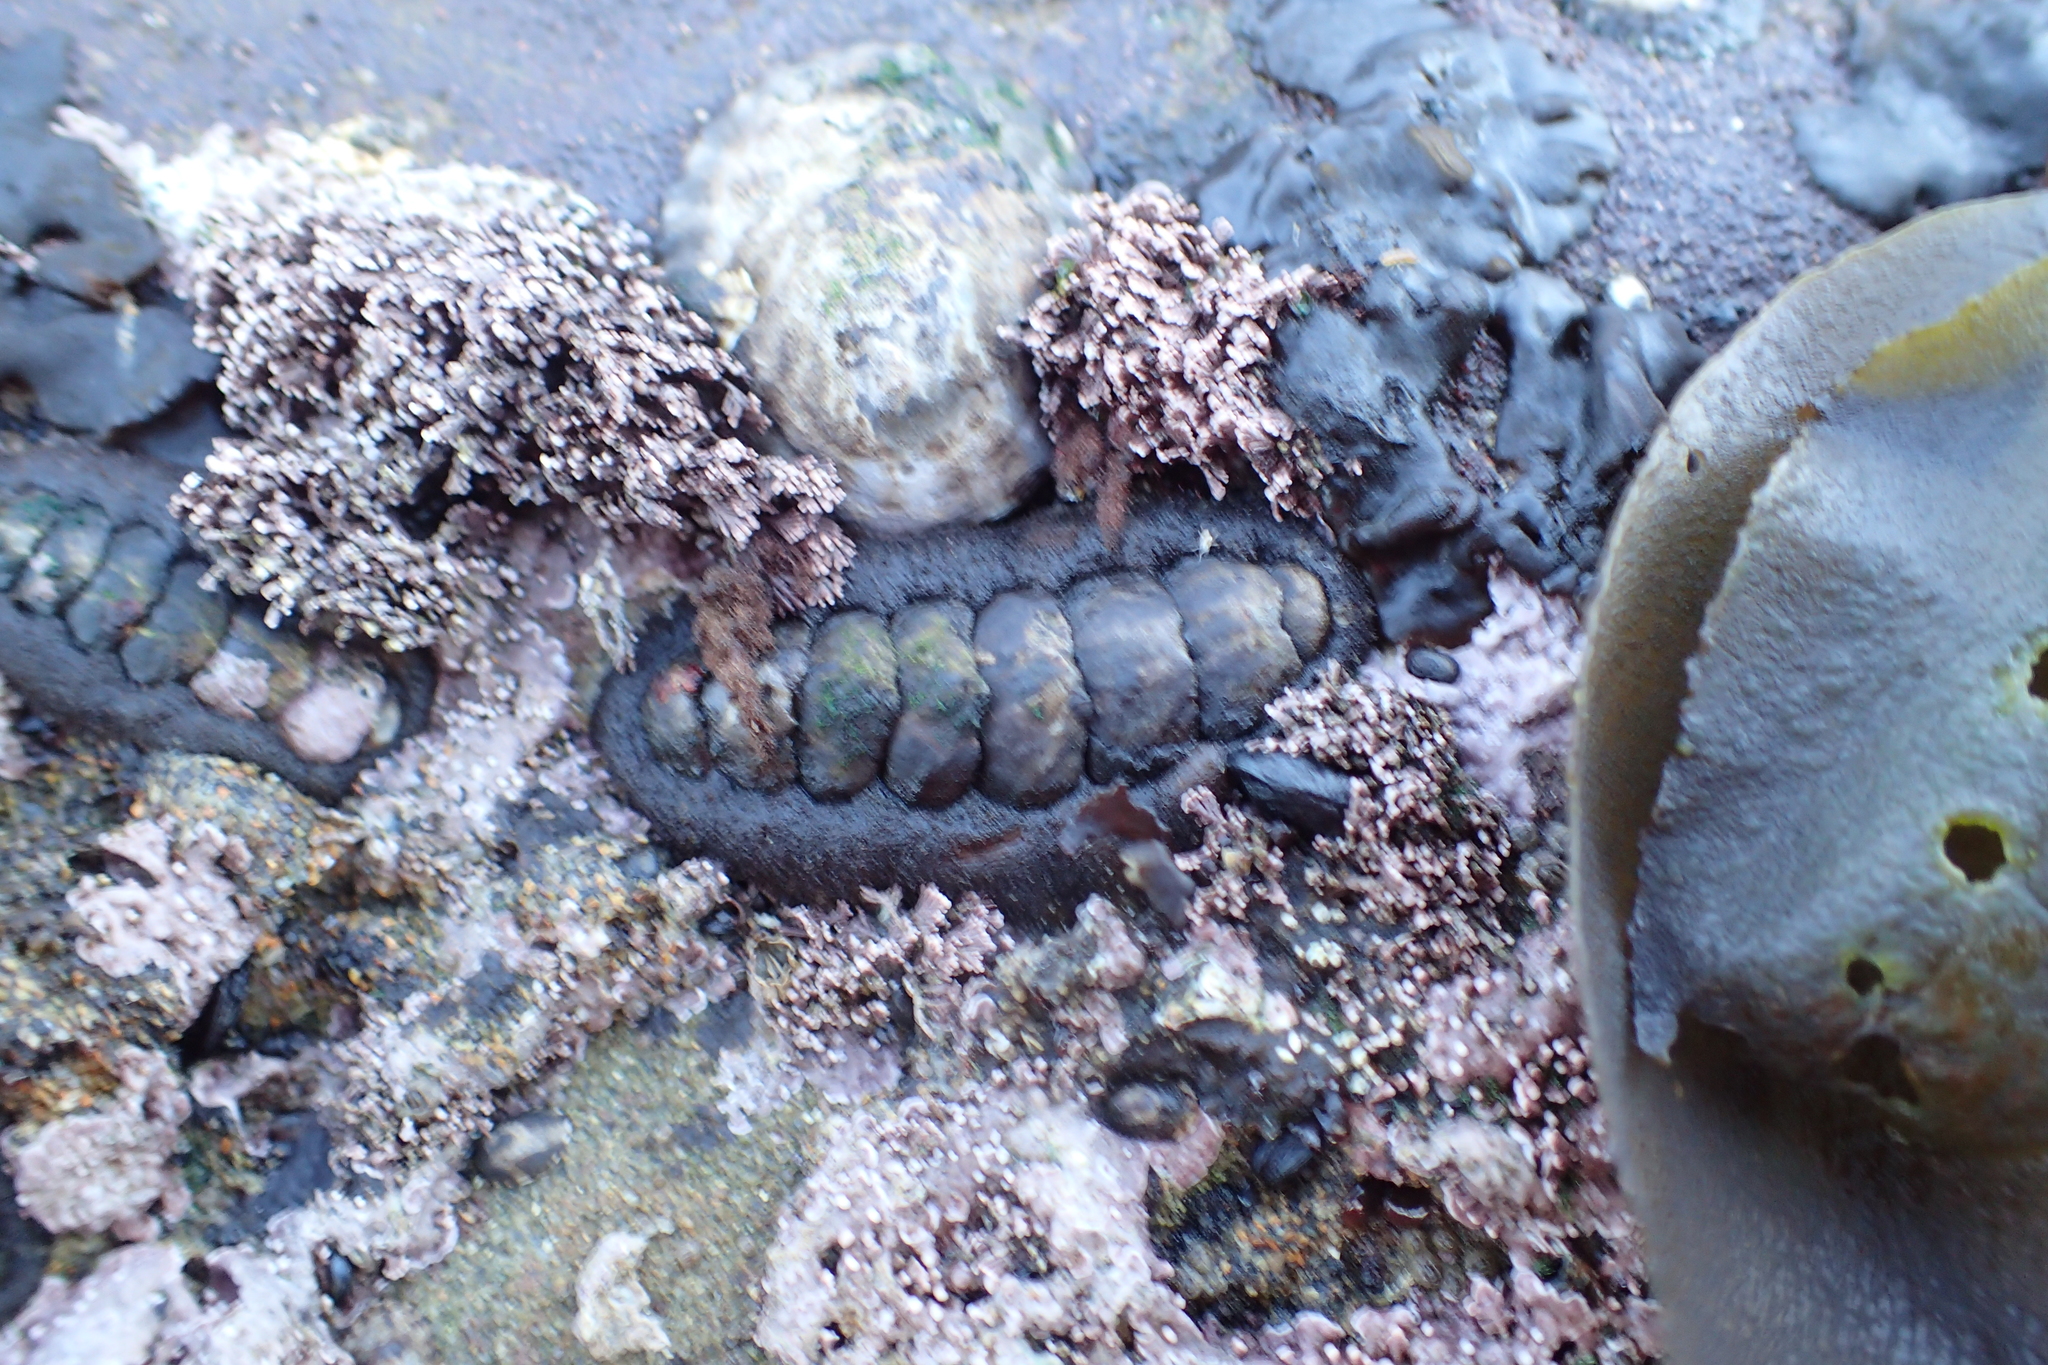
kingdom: Animalia
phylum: Mollusca
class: Polyplacophora
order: Chitonida
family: Tonicellidae
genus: Nuttallina
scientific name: Nuttallina californica
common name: California nuttall chiton
